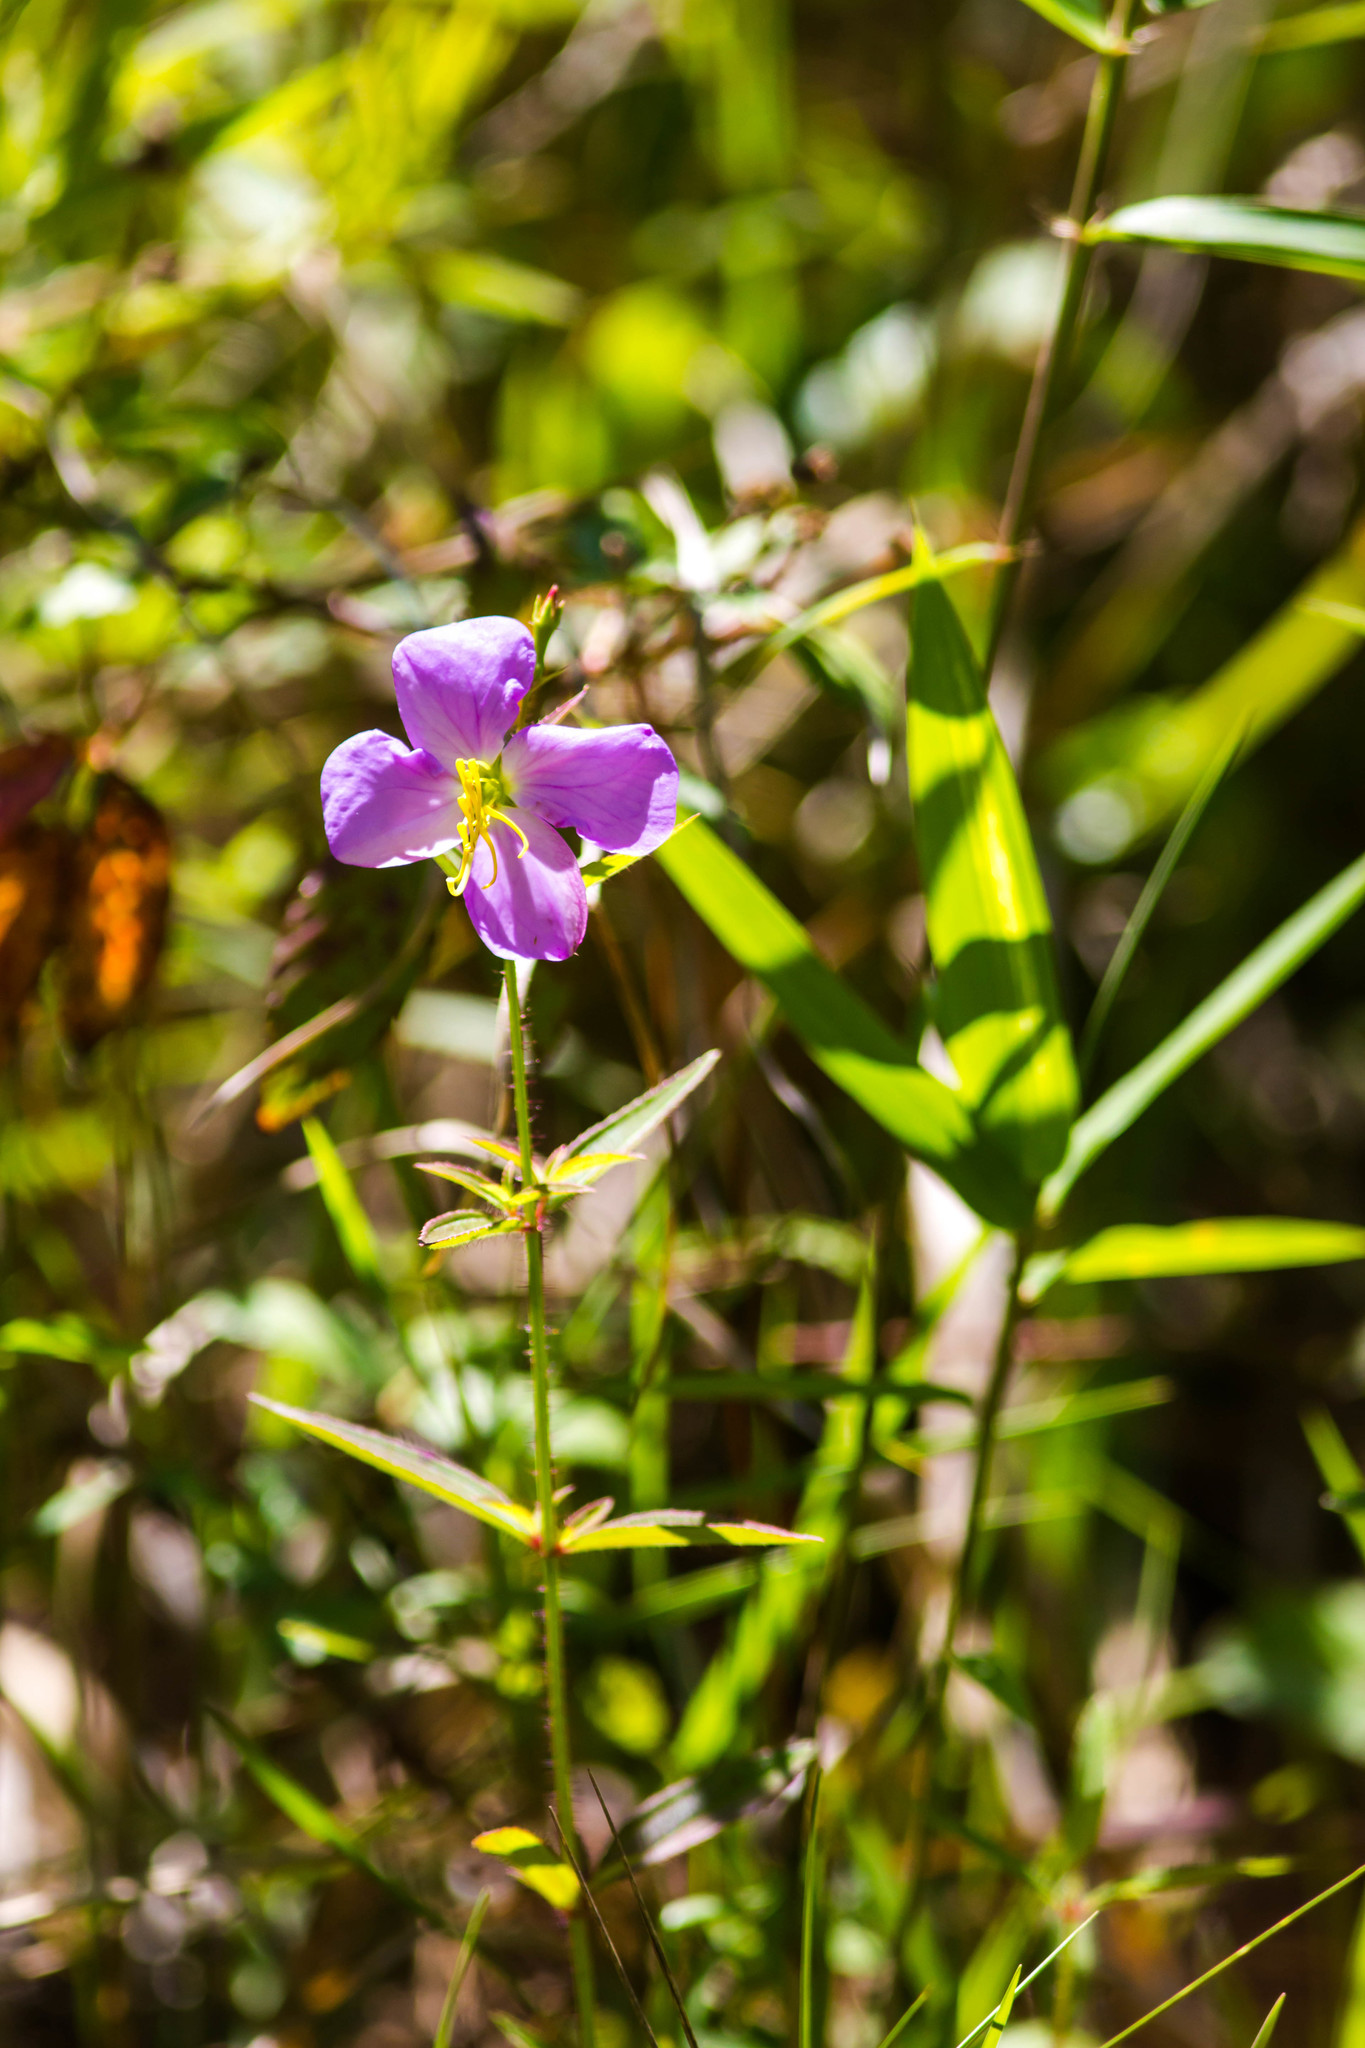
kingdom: Plantae
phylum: Tracheophyta
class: Magnoliopsida
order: Myrtales
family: Melastomataceae
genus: Rhexia
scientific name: Rhexia mariana
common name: Dull meadow-pitcher
